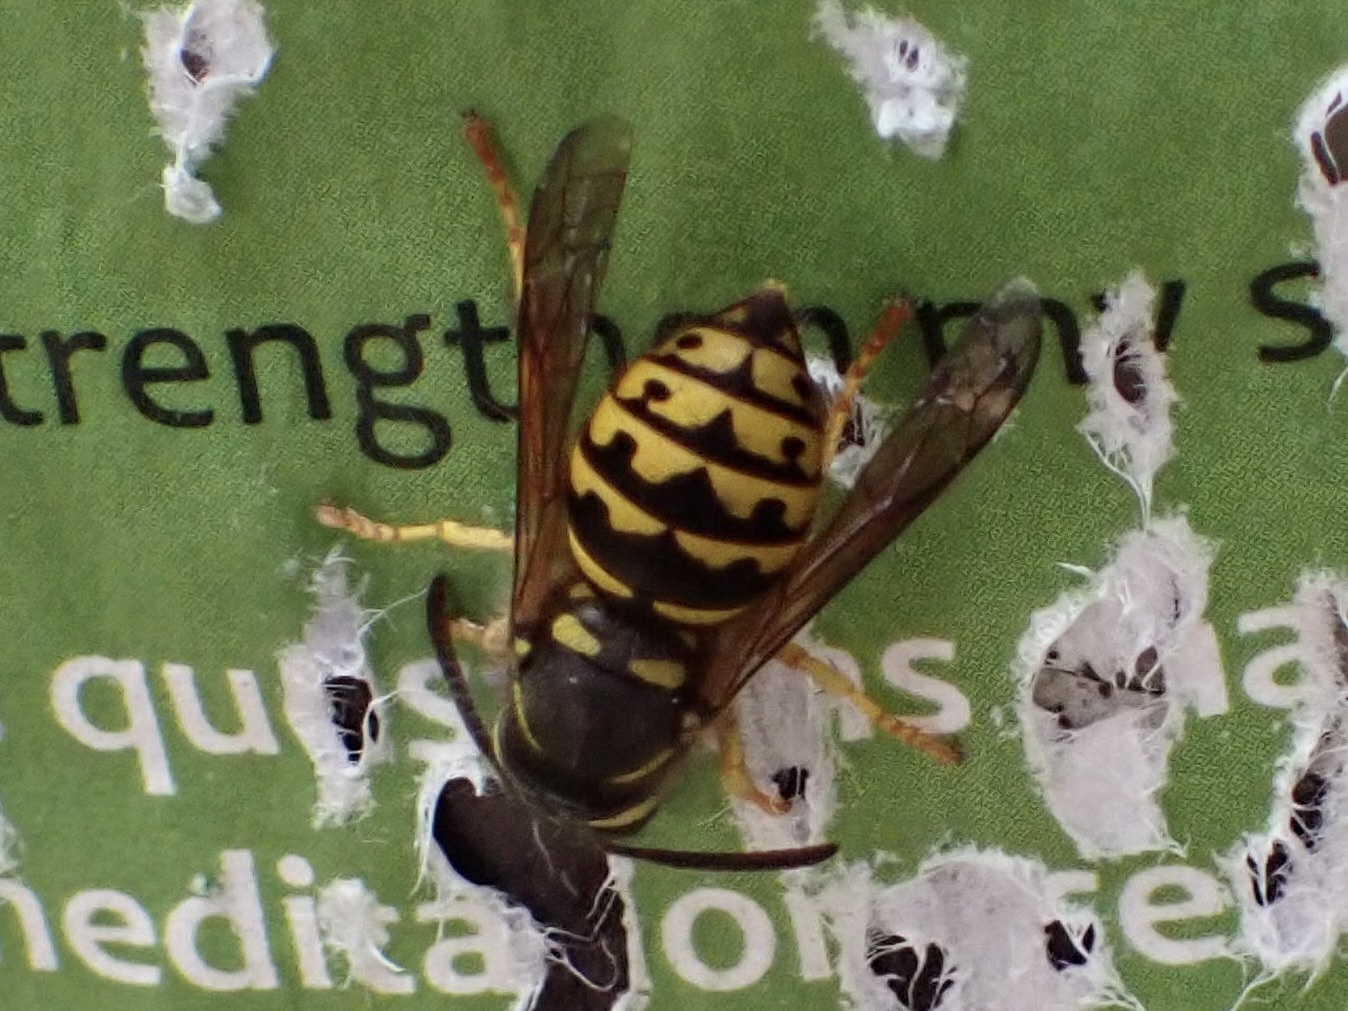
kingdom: Animalia
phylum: Arthropoda
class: Insecta
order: Hymenoptera
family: Vespidae
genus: Dolichovespula
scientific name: Dolichovespula arenaria
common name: Aerial yellowjacket
